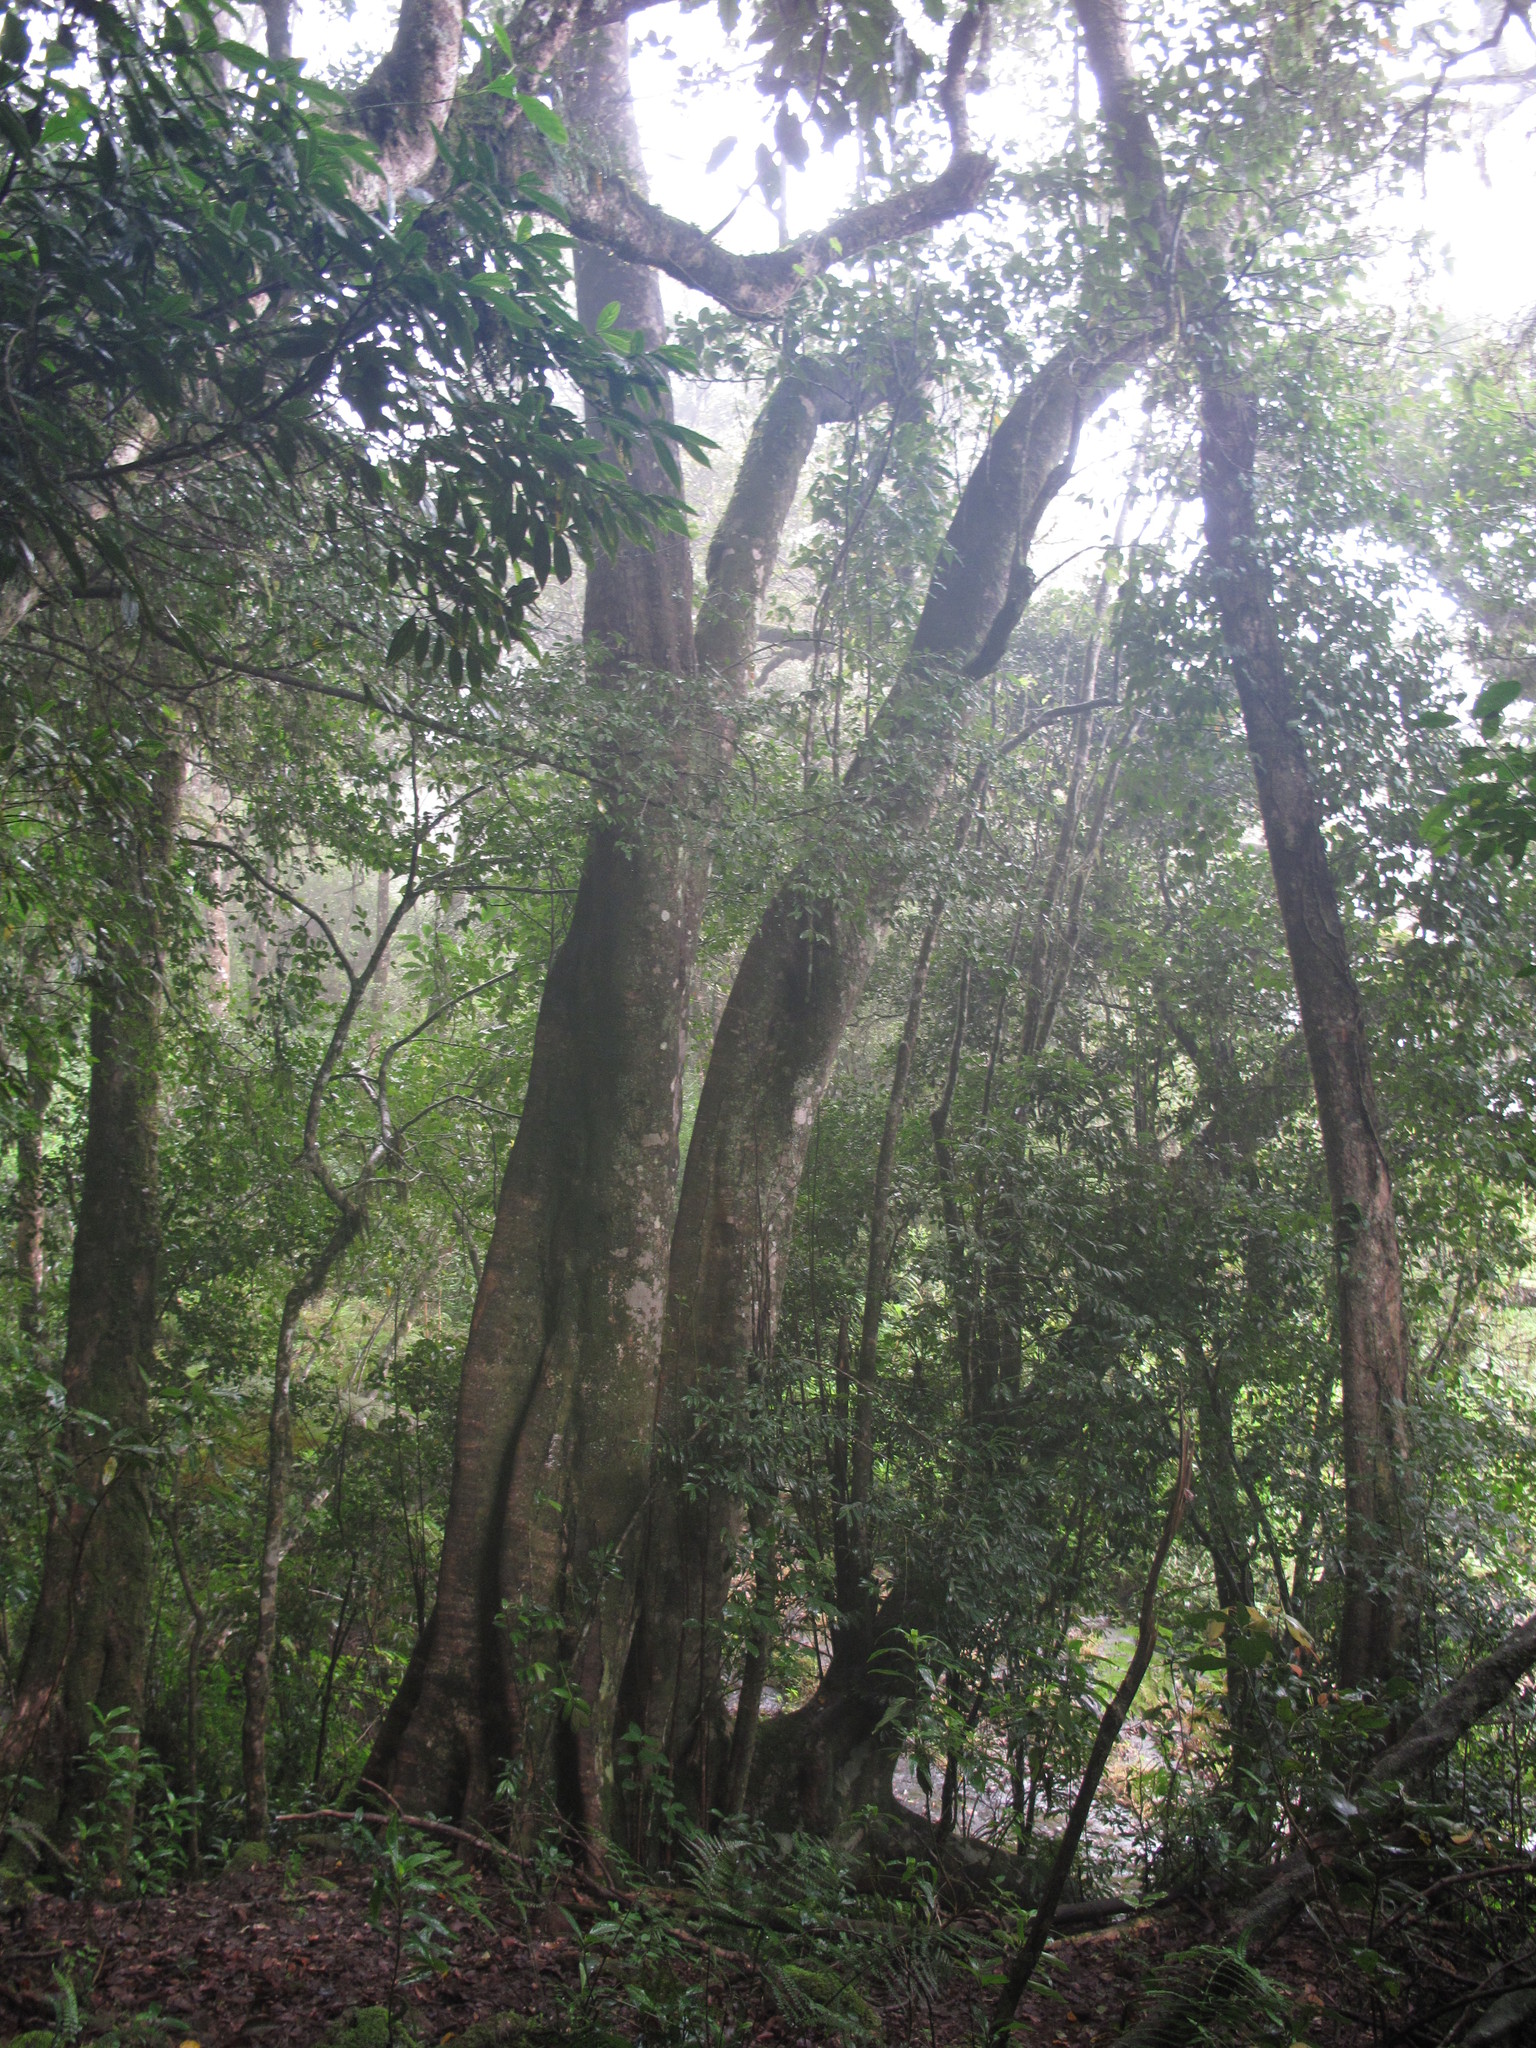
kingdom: Plantae
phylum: Tracheophyta
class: Magnoliopsida
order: Oxalidales
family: Elaeocarpaceae
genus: Elaeocarpus
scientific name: Elaeocarpus blascoi
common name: Rudrakhsa tree
